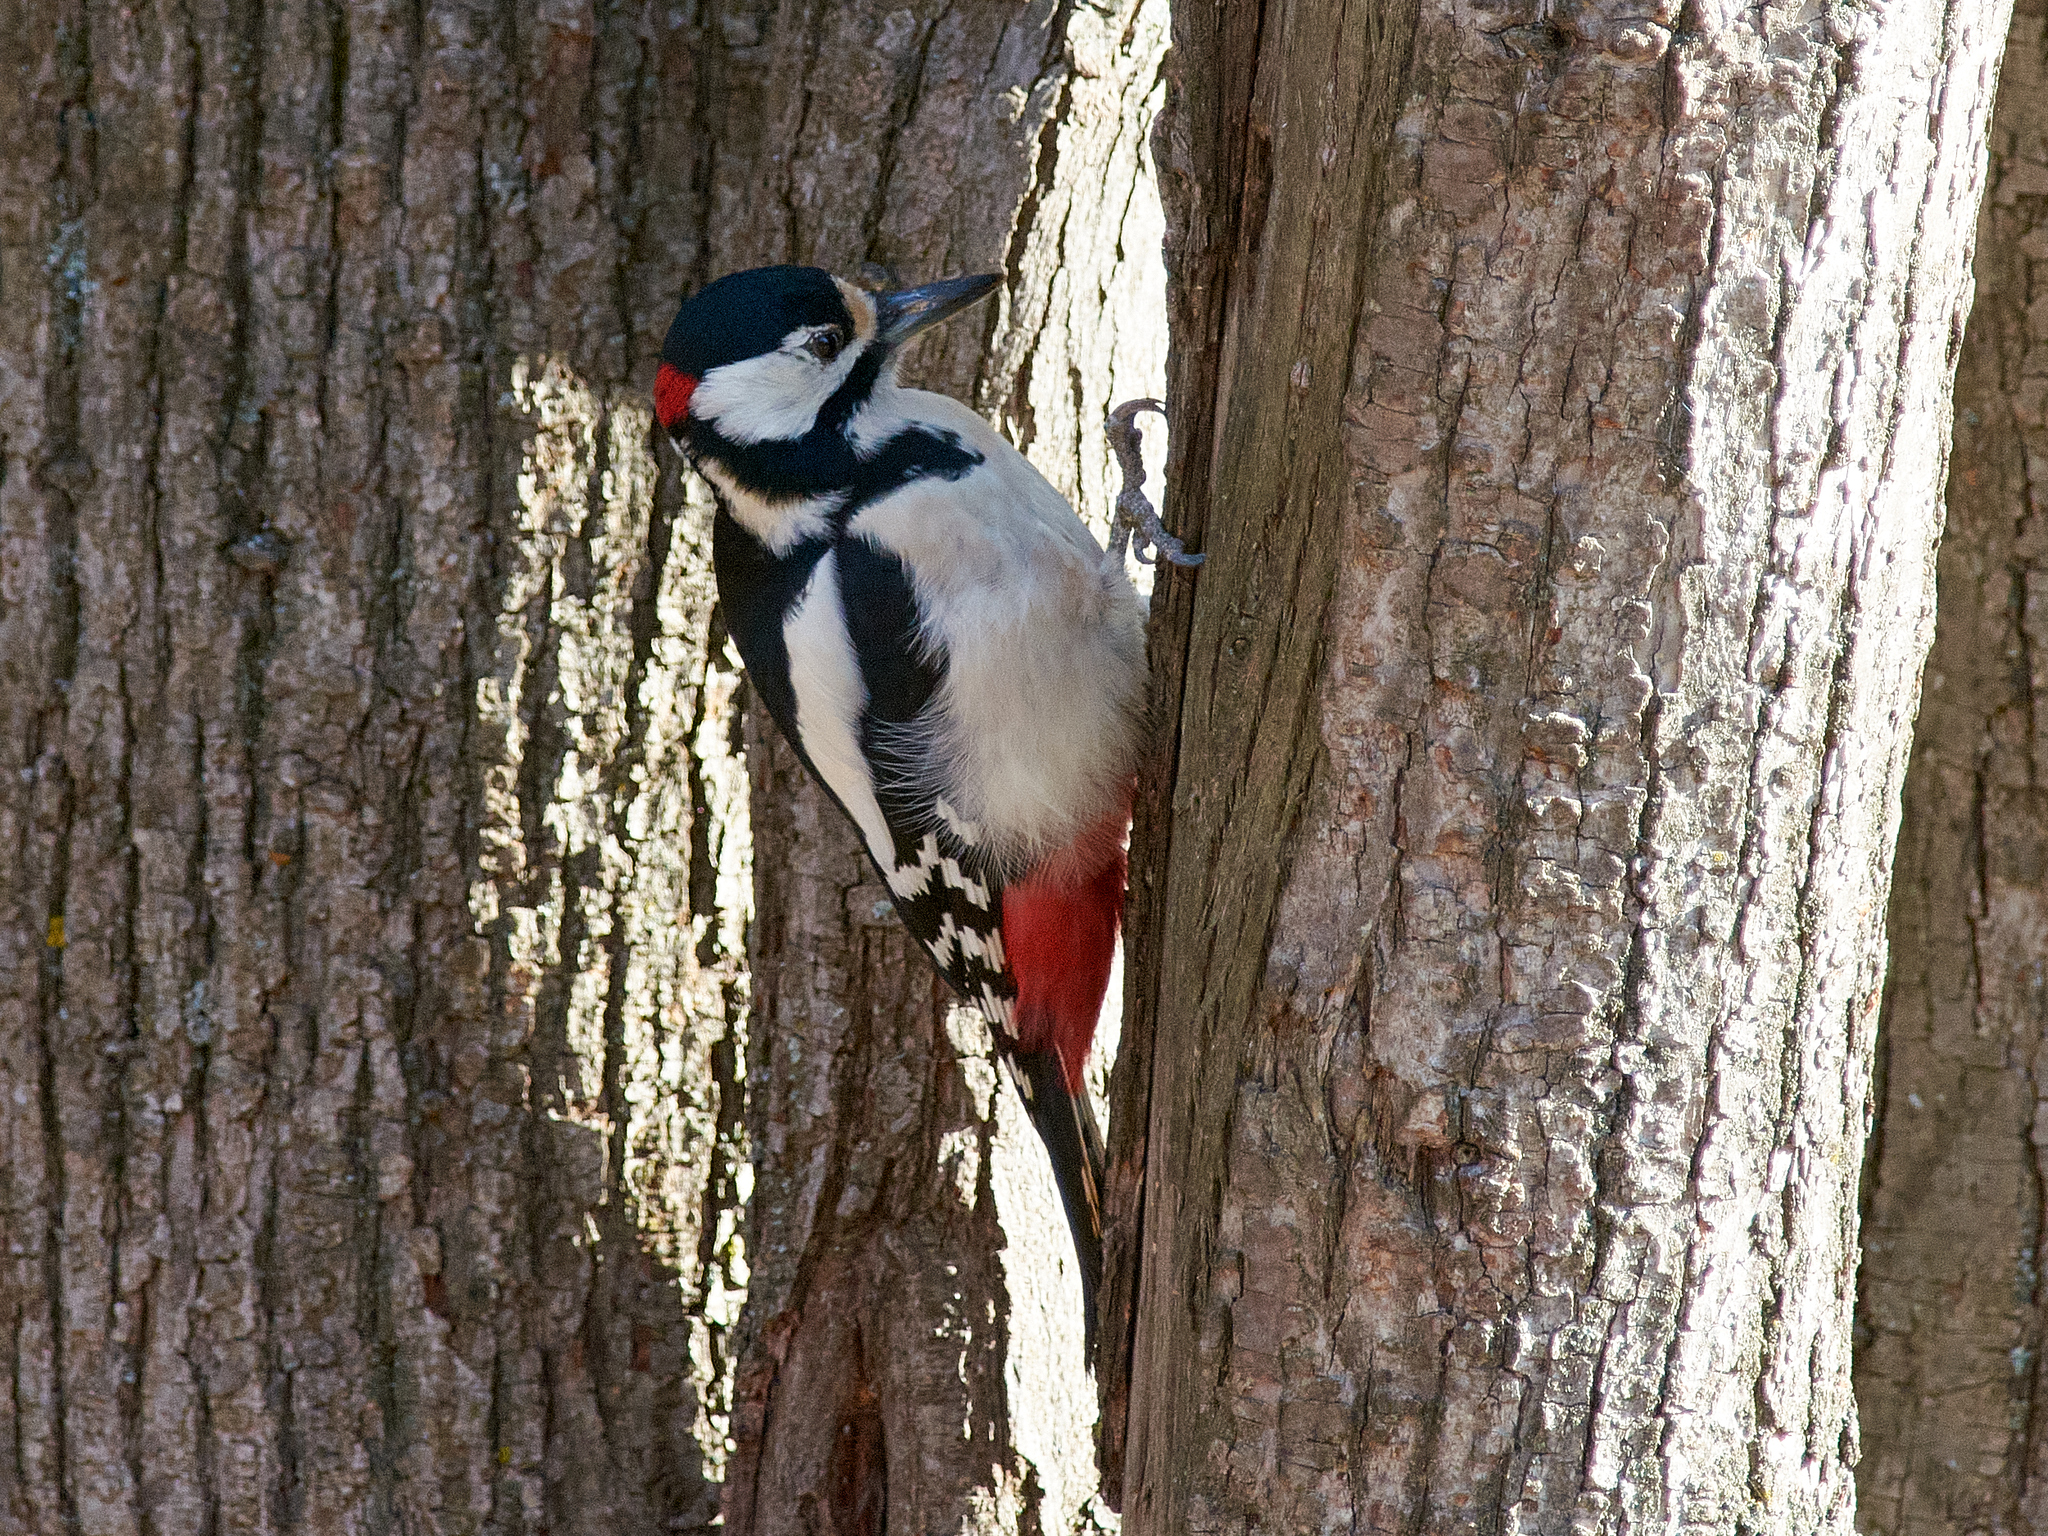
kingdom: Animalia
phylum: Chordata
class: Aves
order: Piciformes
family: Picidae
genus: Dendrocopos
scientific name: Dendrocopos major
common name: Great spotted woodpecker
